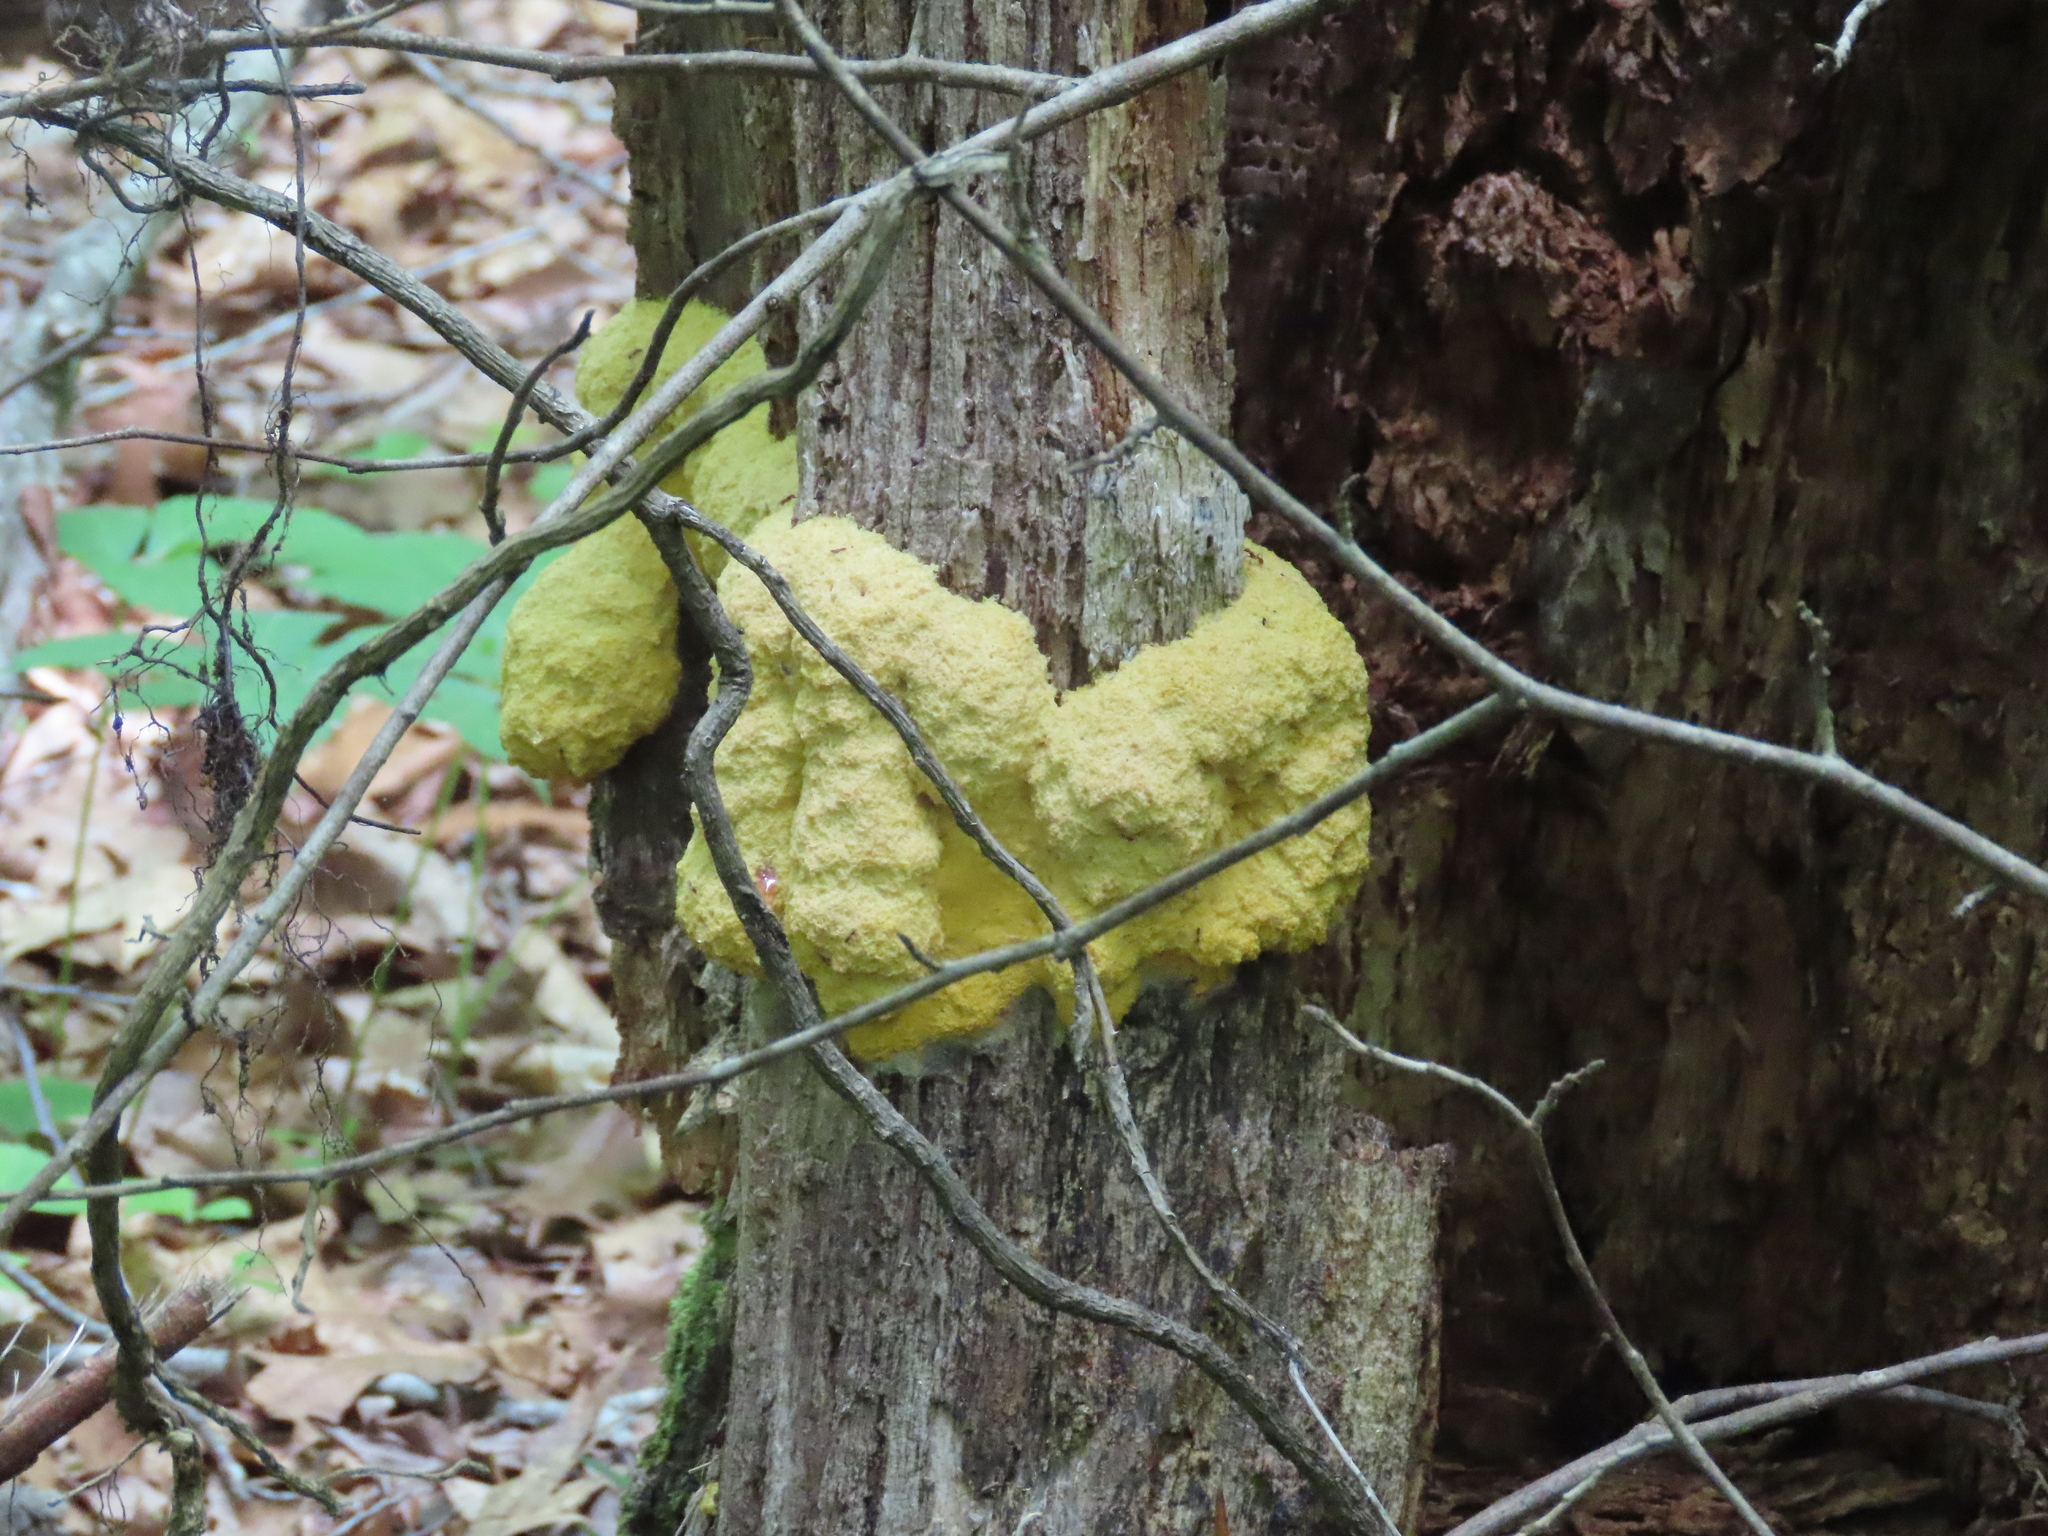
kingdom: Protozoa
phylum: Mycetozoa
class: Myxomycetes
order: Physarales
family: Physaraceae
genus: Fuligo
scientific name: Fuligo septica
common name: Dog vomit slime mold
